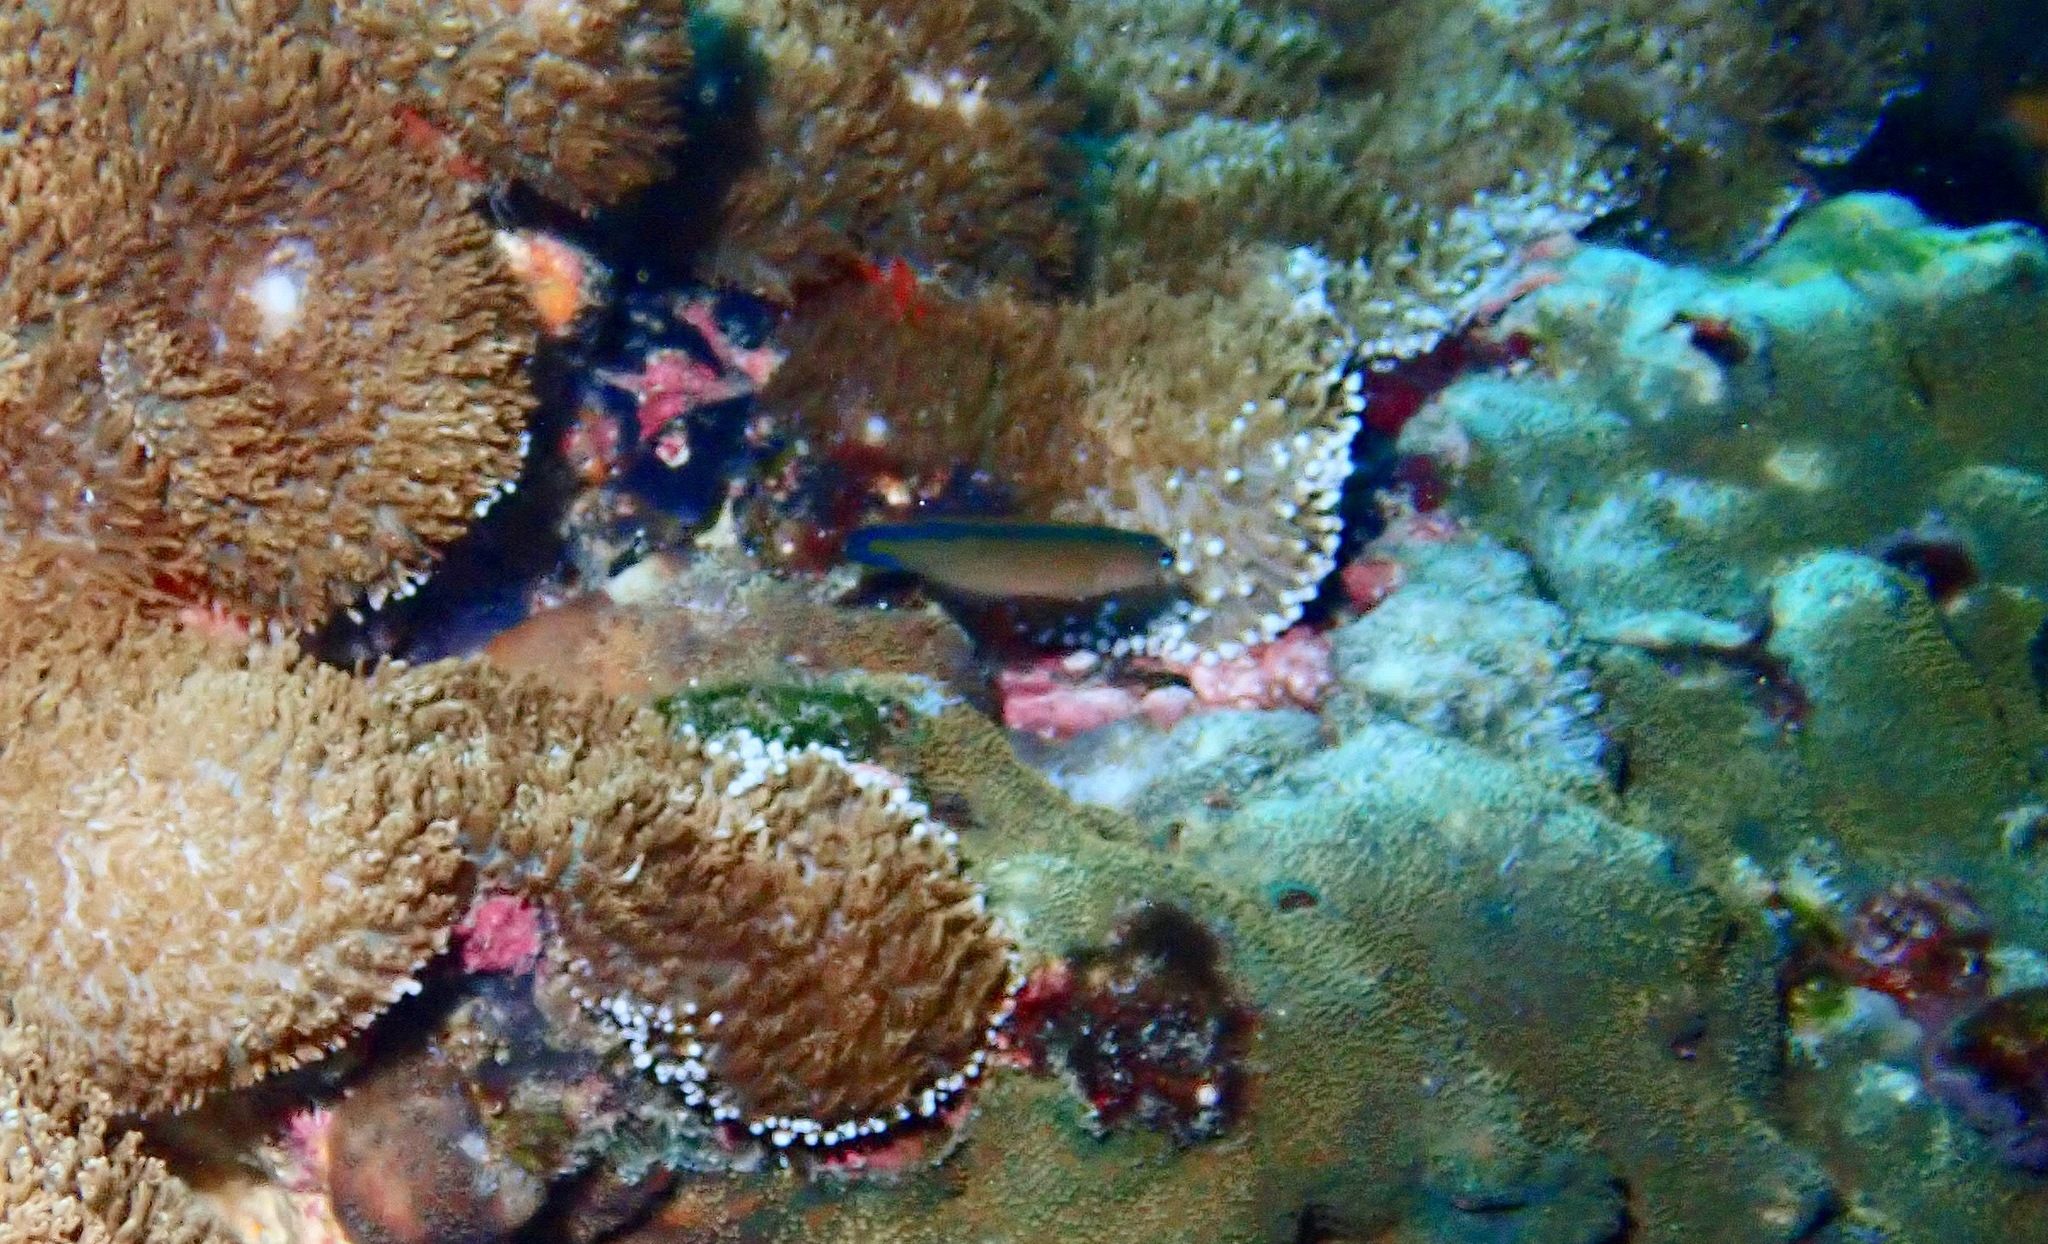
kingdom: Animalia
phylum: Chordata
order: Perciformes
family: Pseudochromidae
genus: Pseudochromis
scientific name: Pseudochromis tapeinosoma
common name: Horseshoe-tailed dottyback
